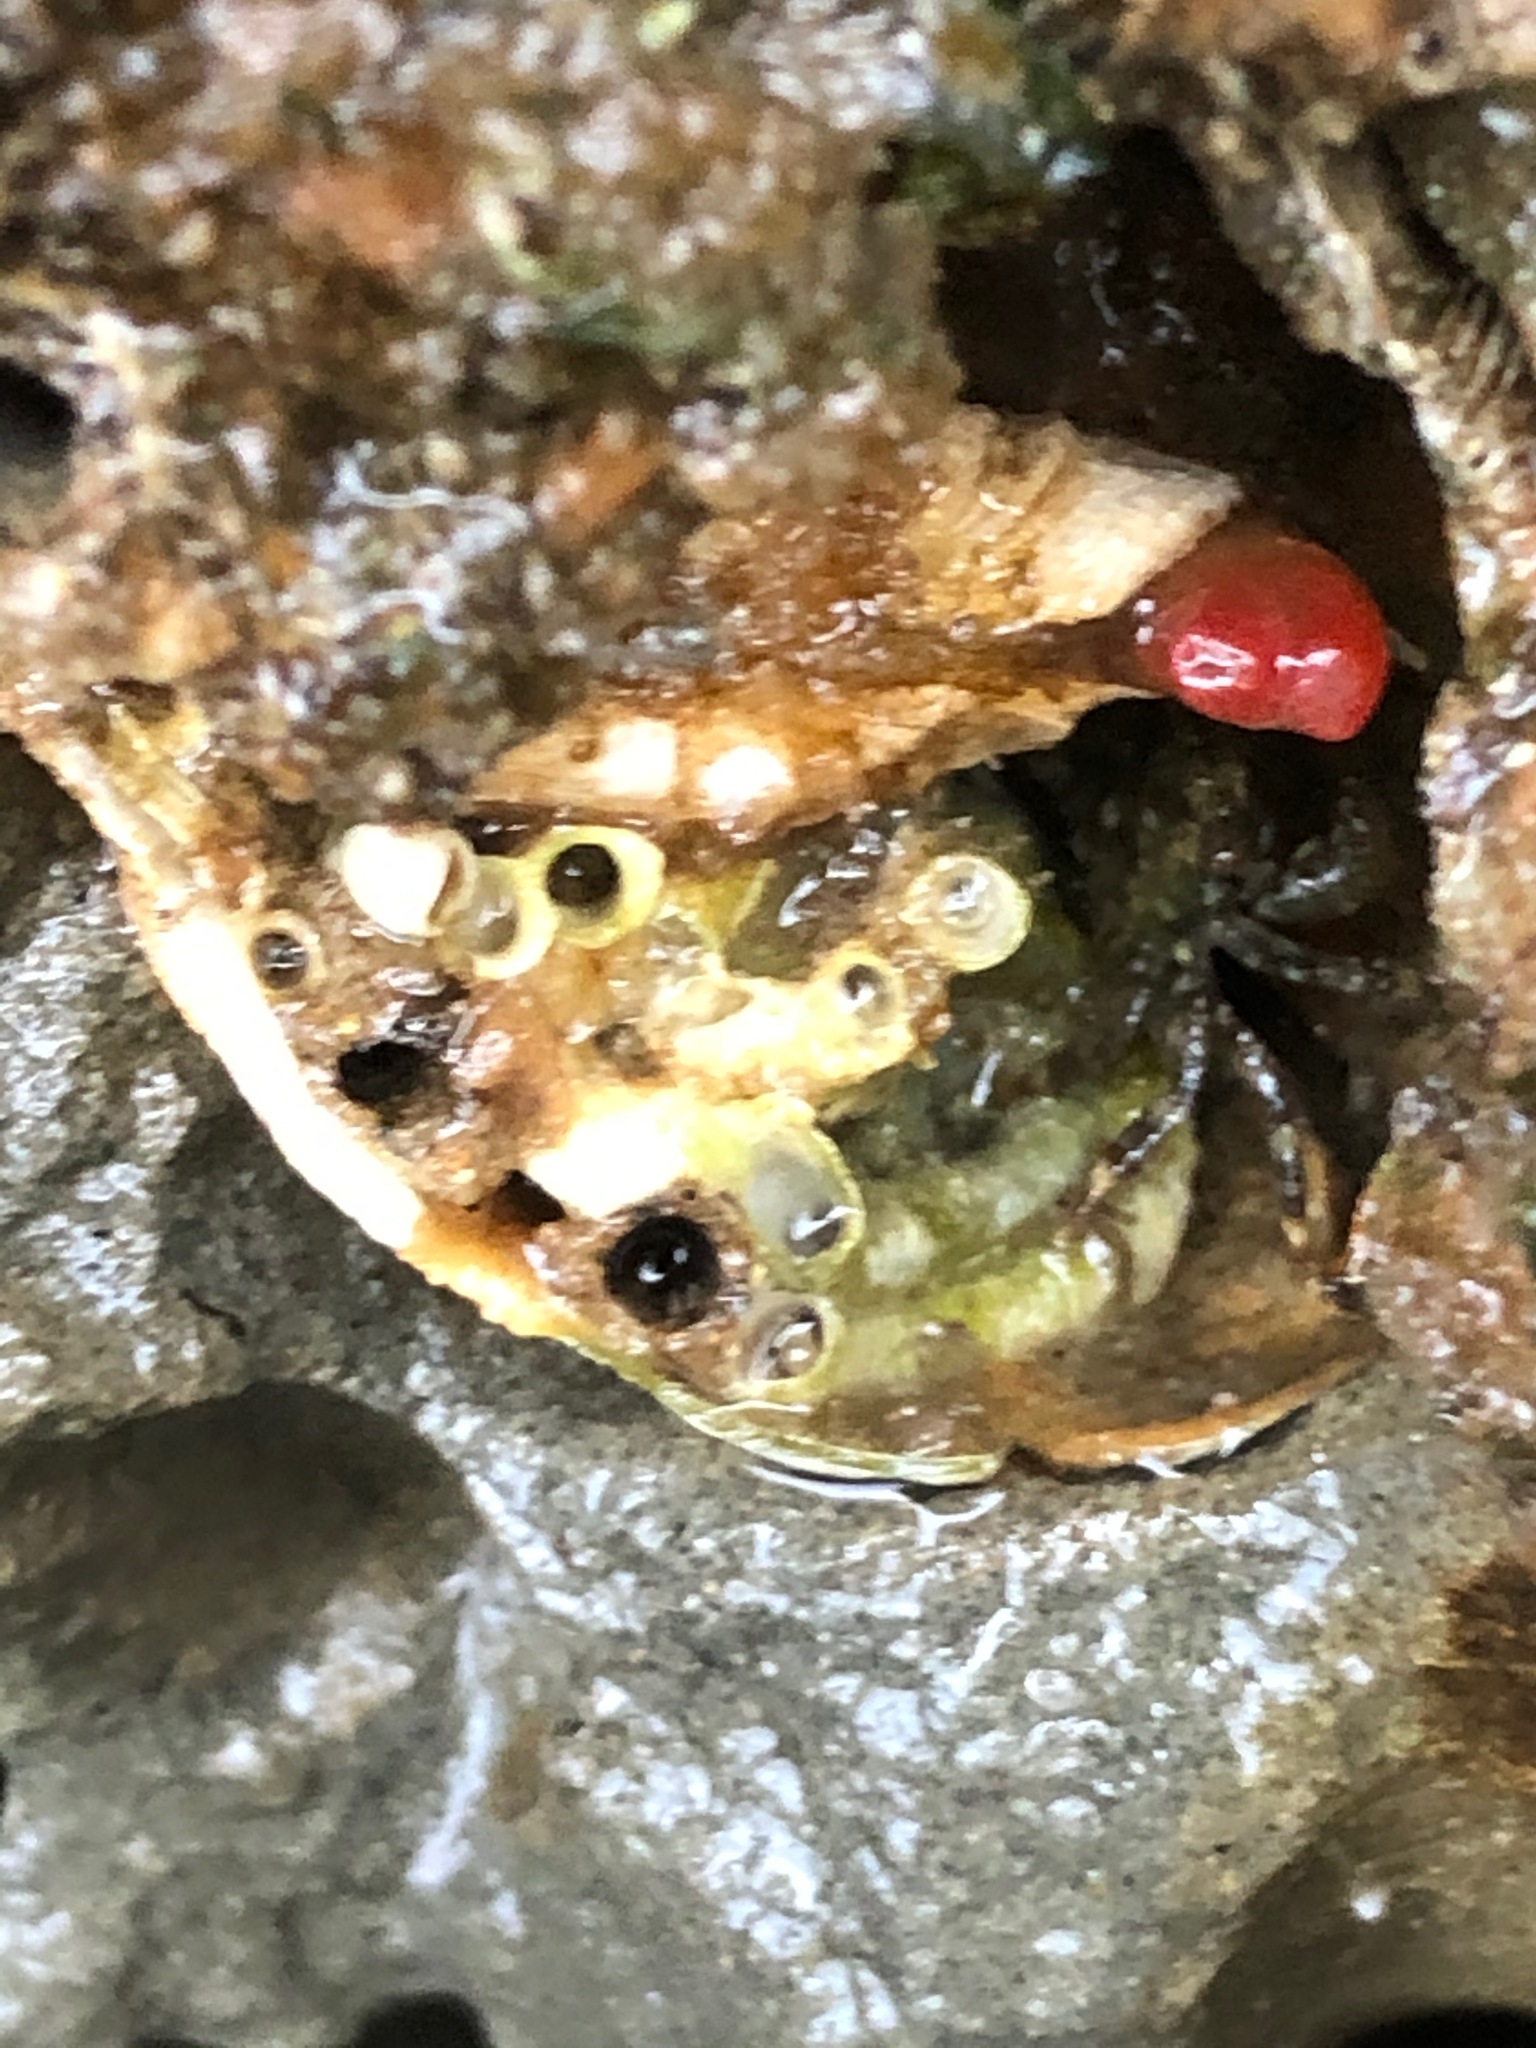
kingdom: Animalia
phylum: Mollusca
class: Bivalvia
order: Adapedonta
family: Hiatellidae
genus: Hiatella
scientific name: Hiatella arctica
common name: Arctic hiatella
